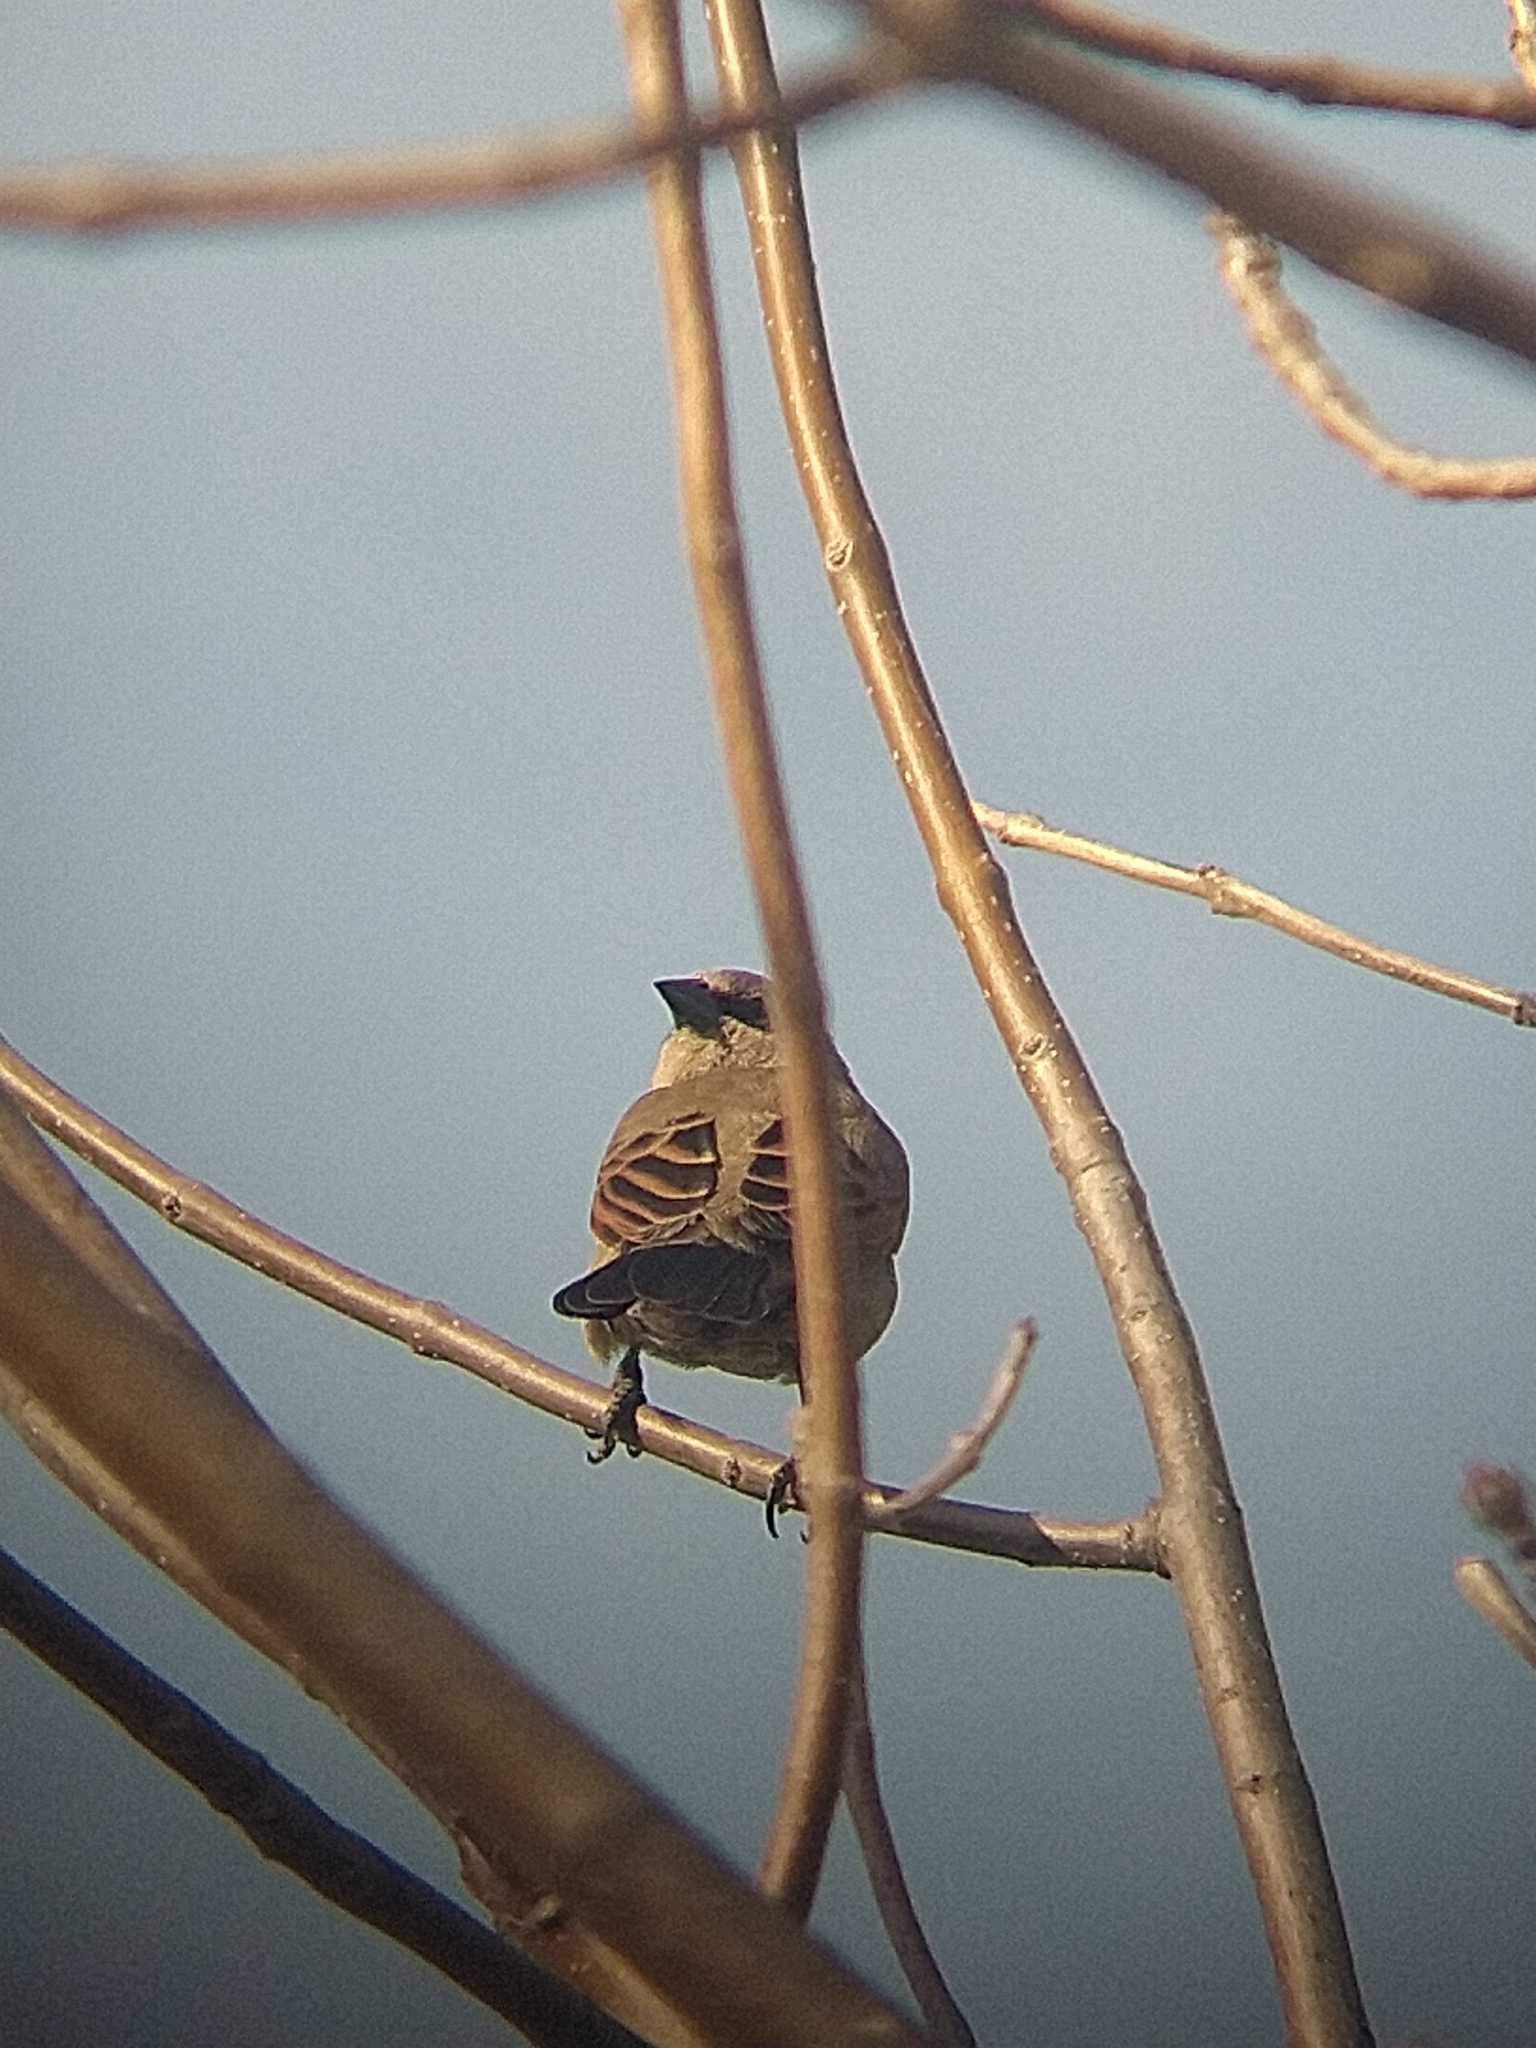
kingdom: Animalia
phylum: Chordata
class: Aves
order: Passeriformes
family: Icteridae
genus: Agelaioides
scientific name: Agelaioides badius
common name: Baywing
